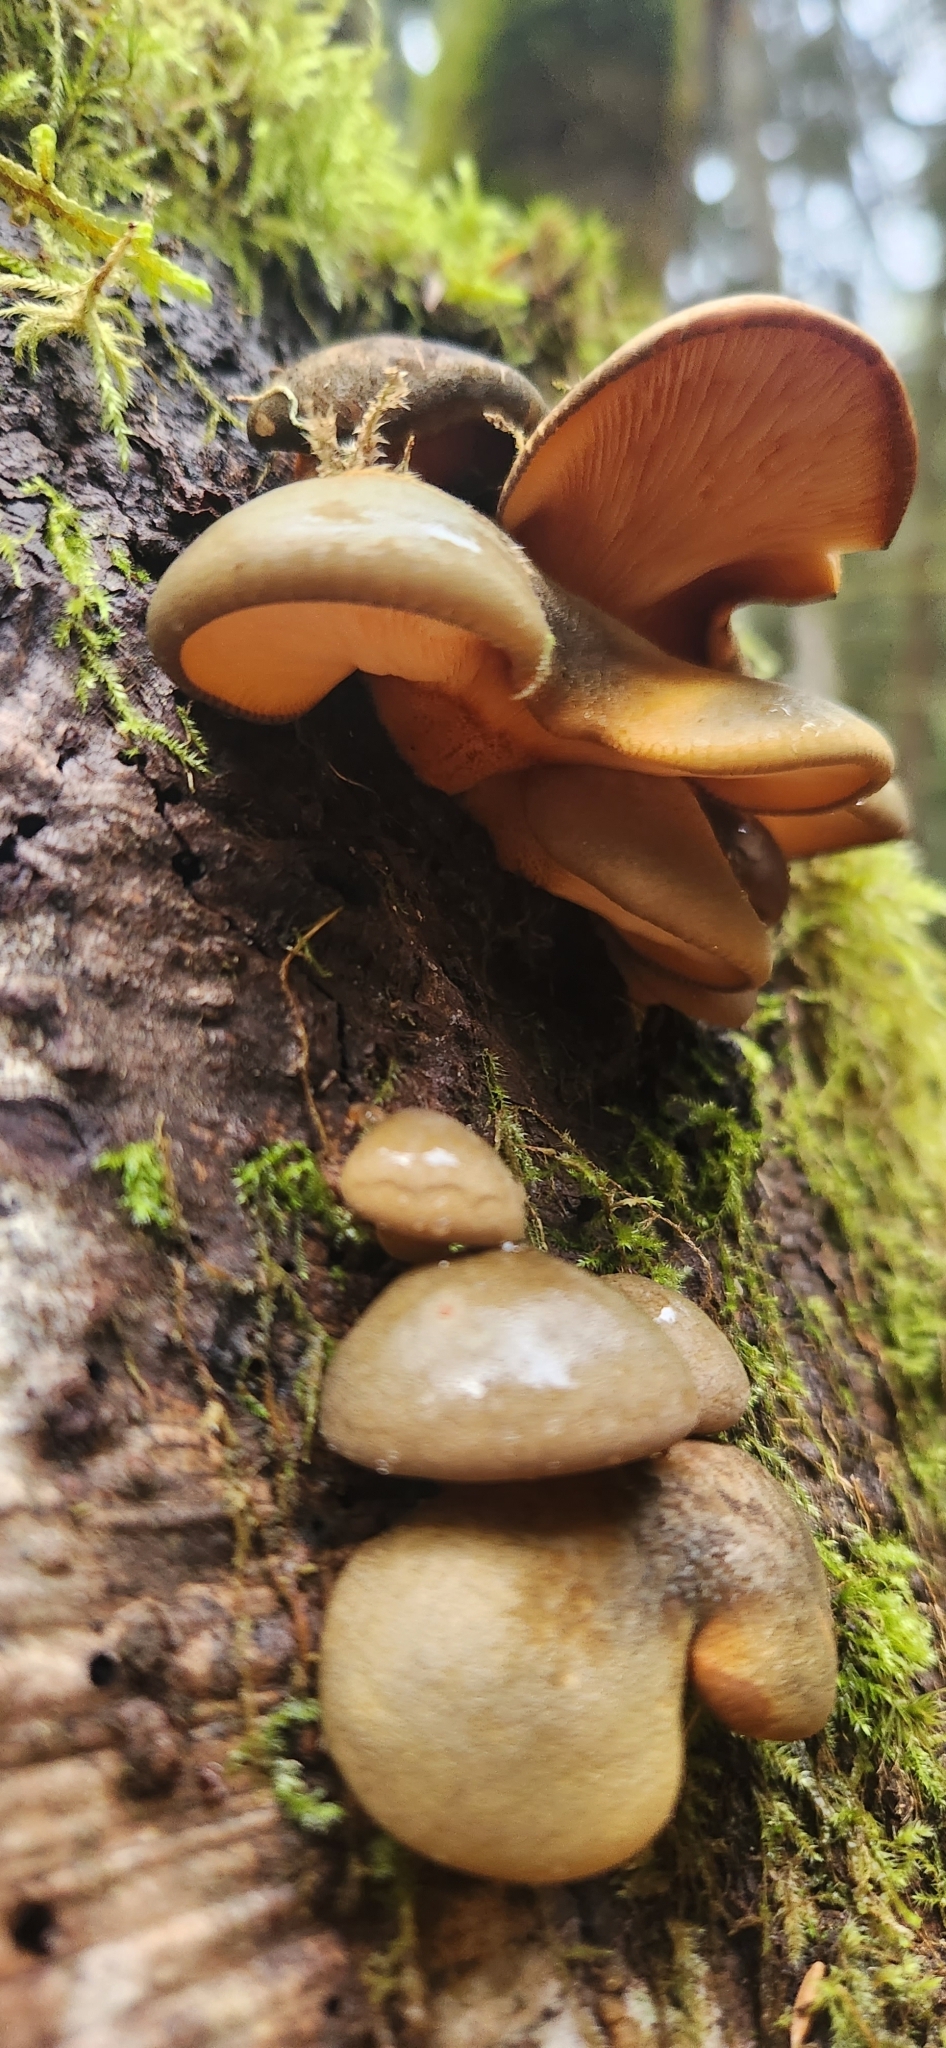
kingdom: Fungi
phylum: Basidiomycota
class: Agaricomycetes
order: Agaricales
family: Sarcomyxaceae
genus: Sarcomyxa
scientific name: Sarcomyxa serotina
